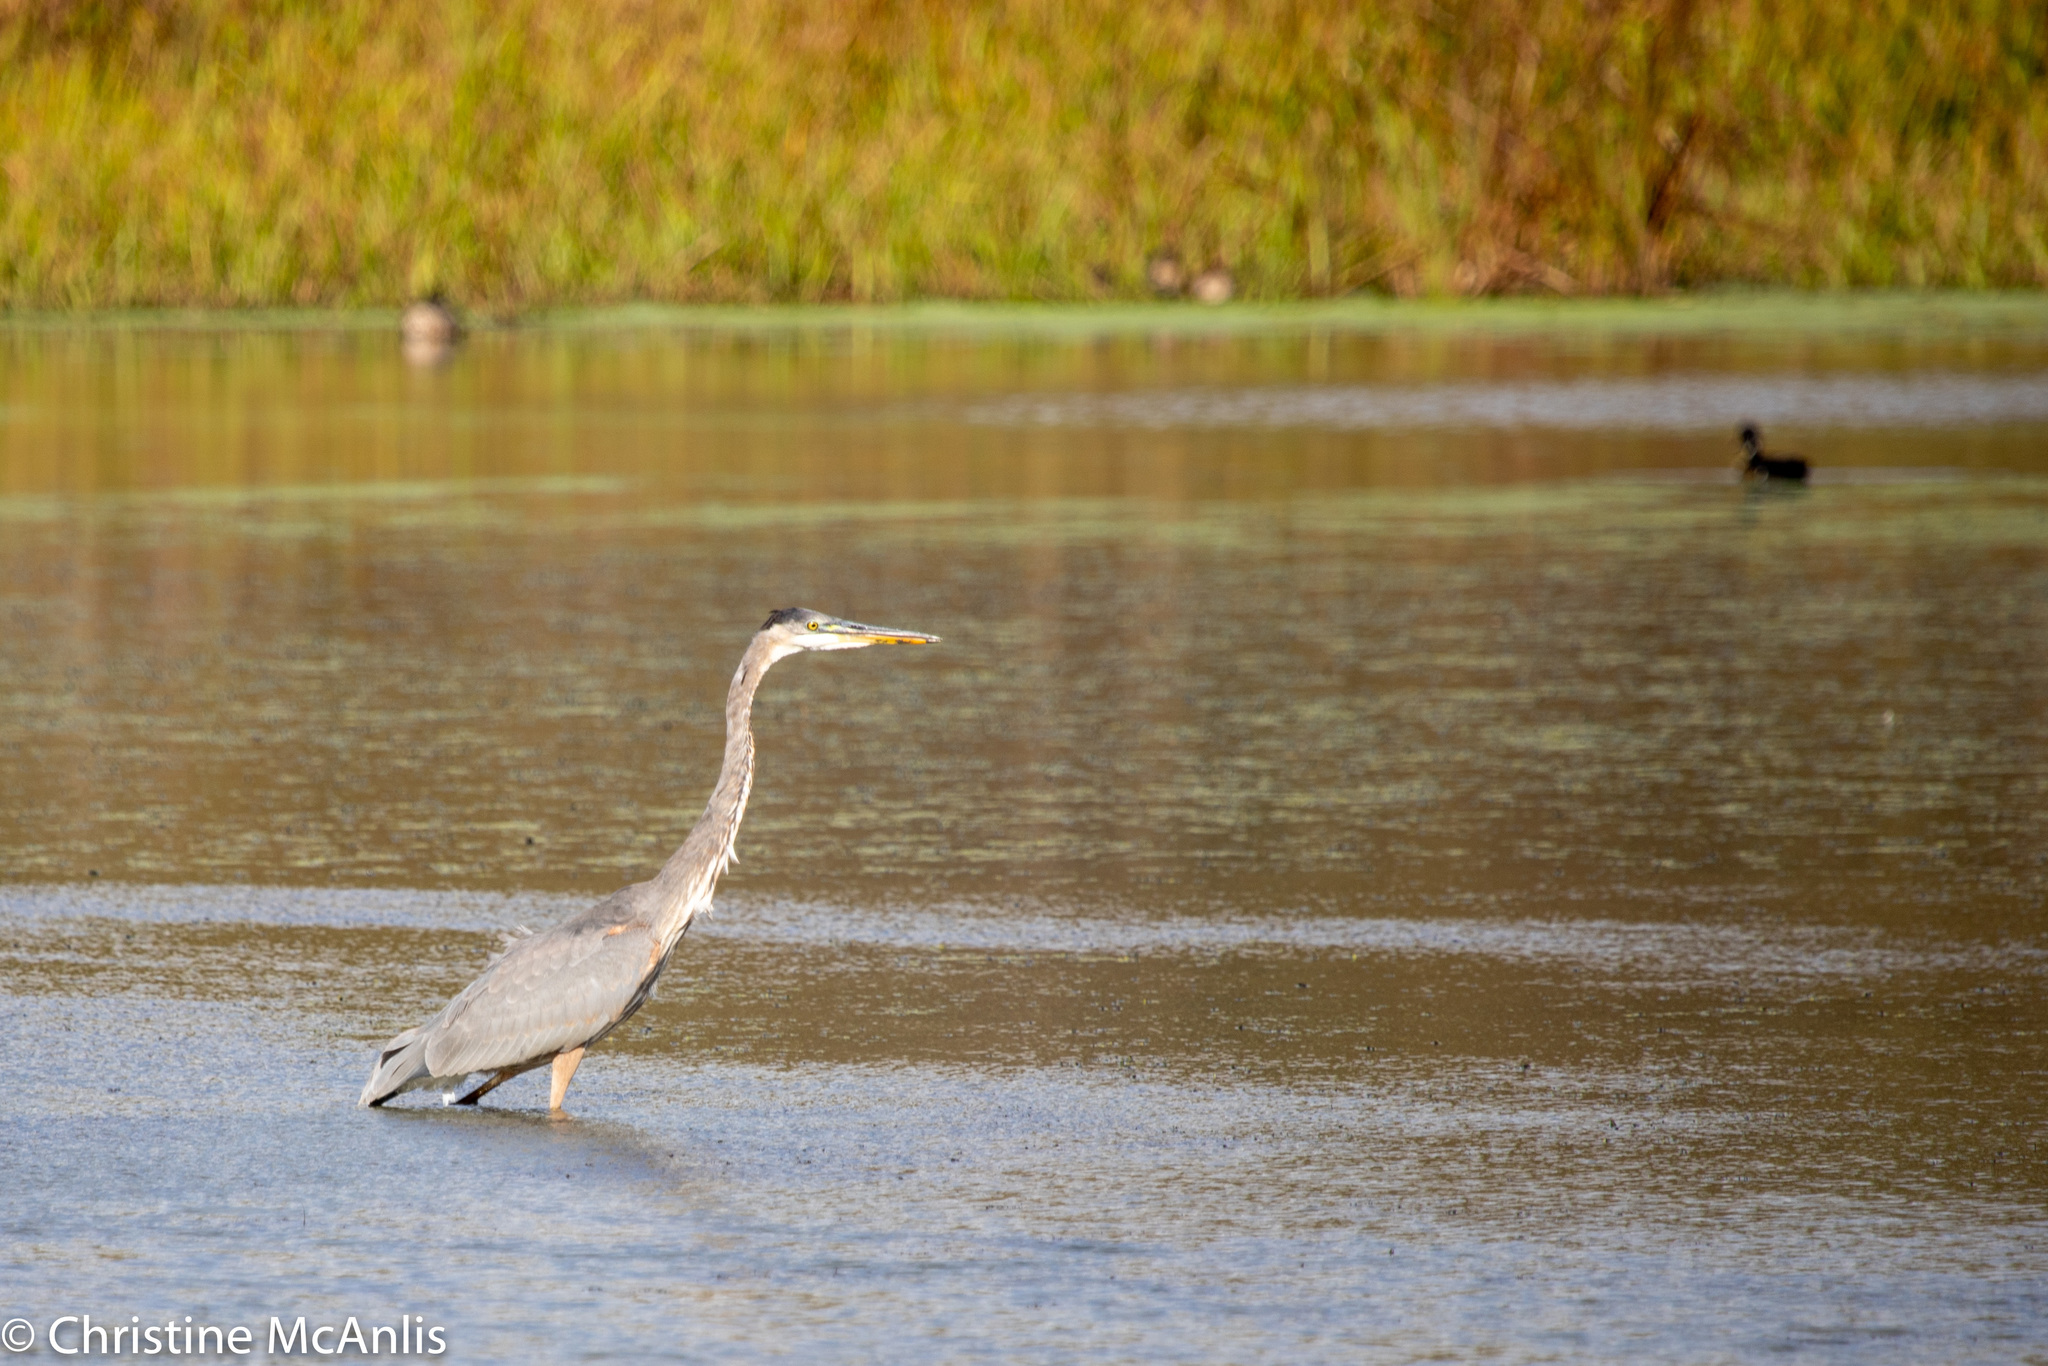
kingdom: Animalia
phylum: Chordata
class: Aves
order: Pelecaniformes
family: Ardeidae
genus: Ardea
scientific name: Ardea herodias
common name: Great blue heron
